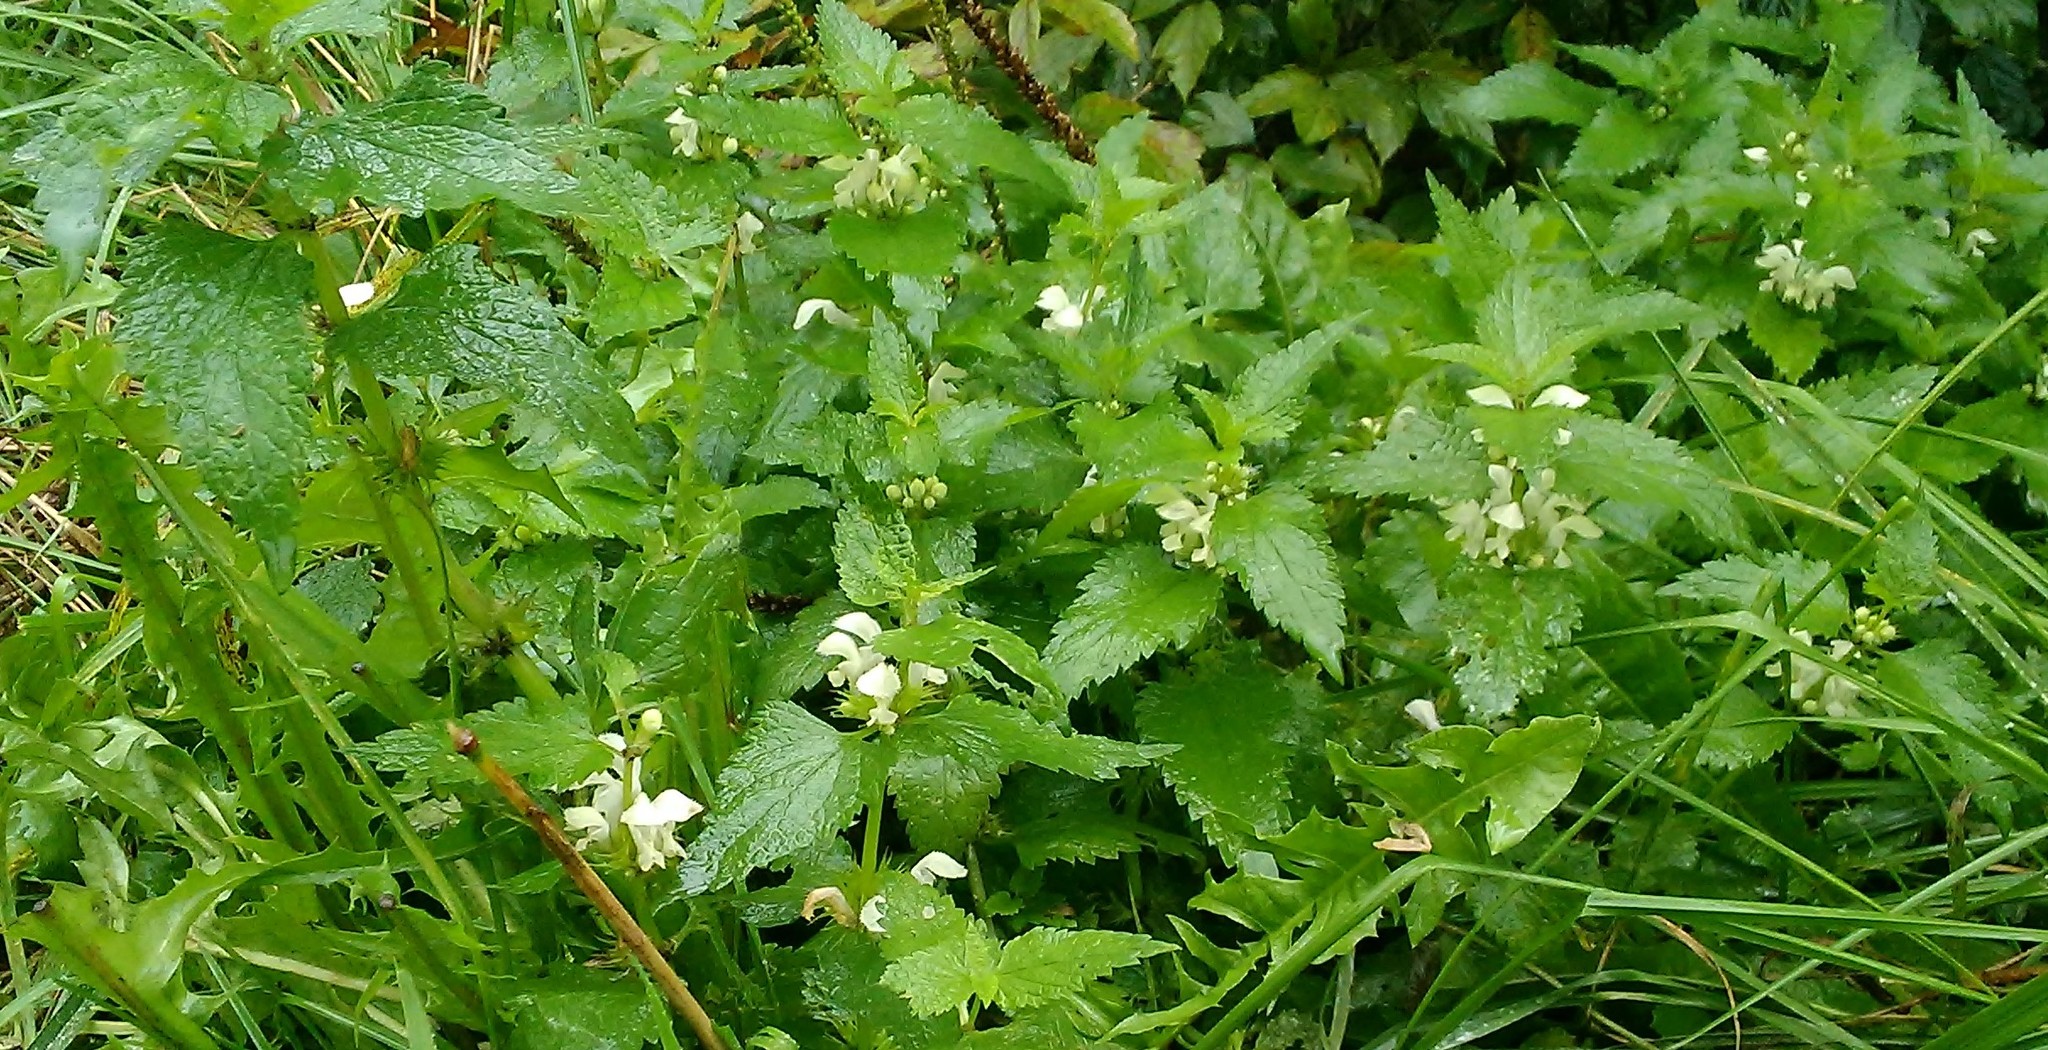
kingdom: Plantae
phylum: Tracheophyta
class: Magnoliopsida
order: Lamiales
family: Lamiaceae
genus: Lamium
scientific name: Lamium album
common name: White dead-nettle
